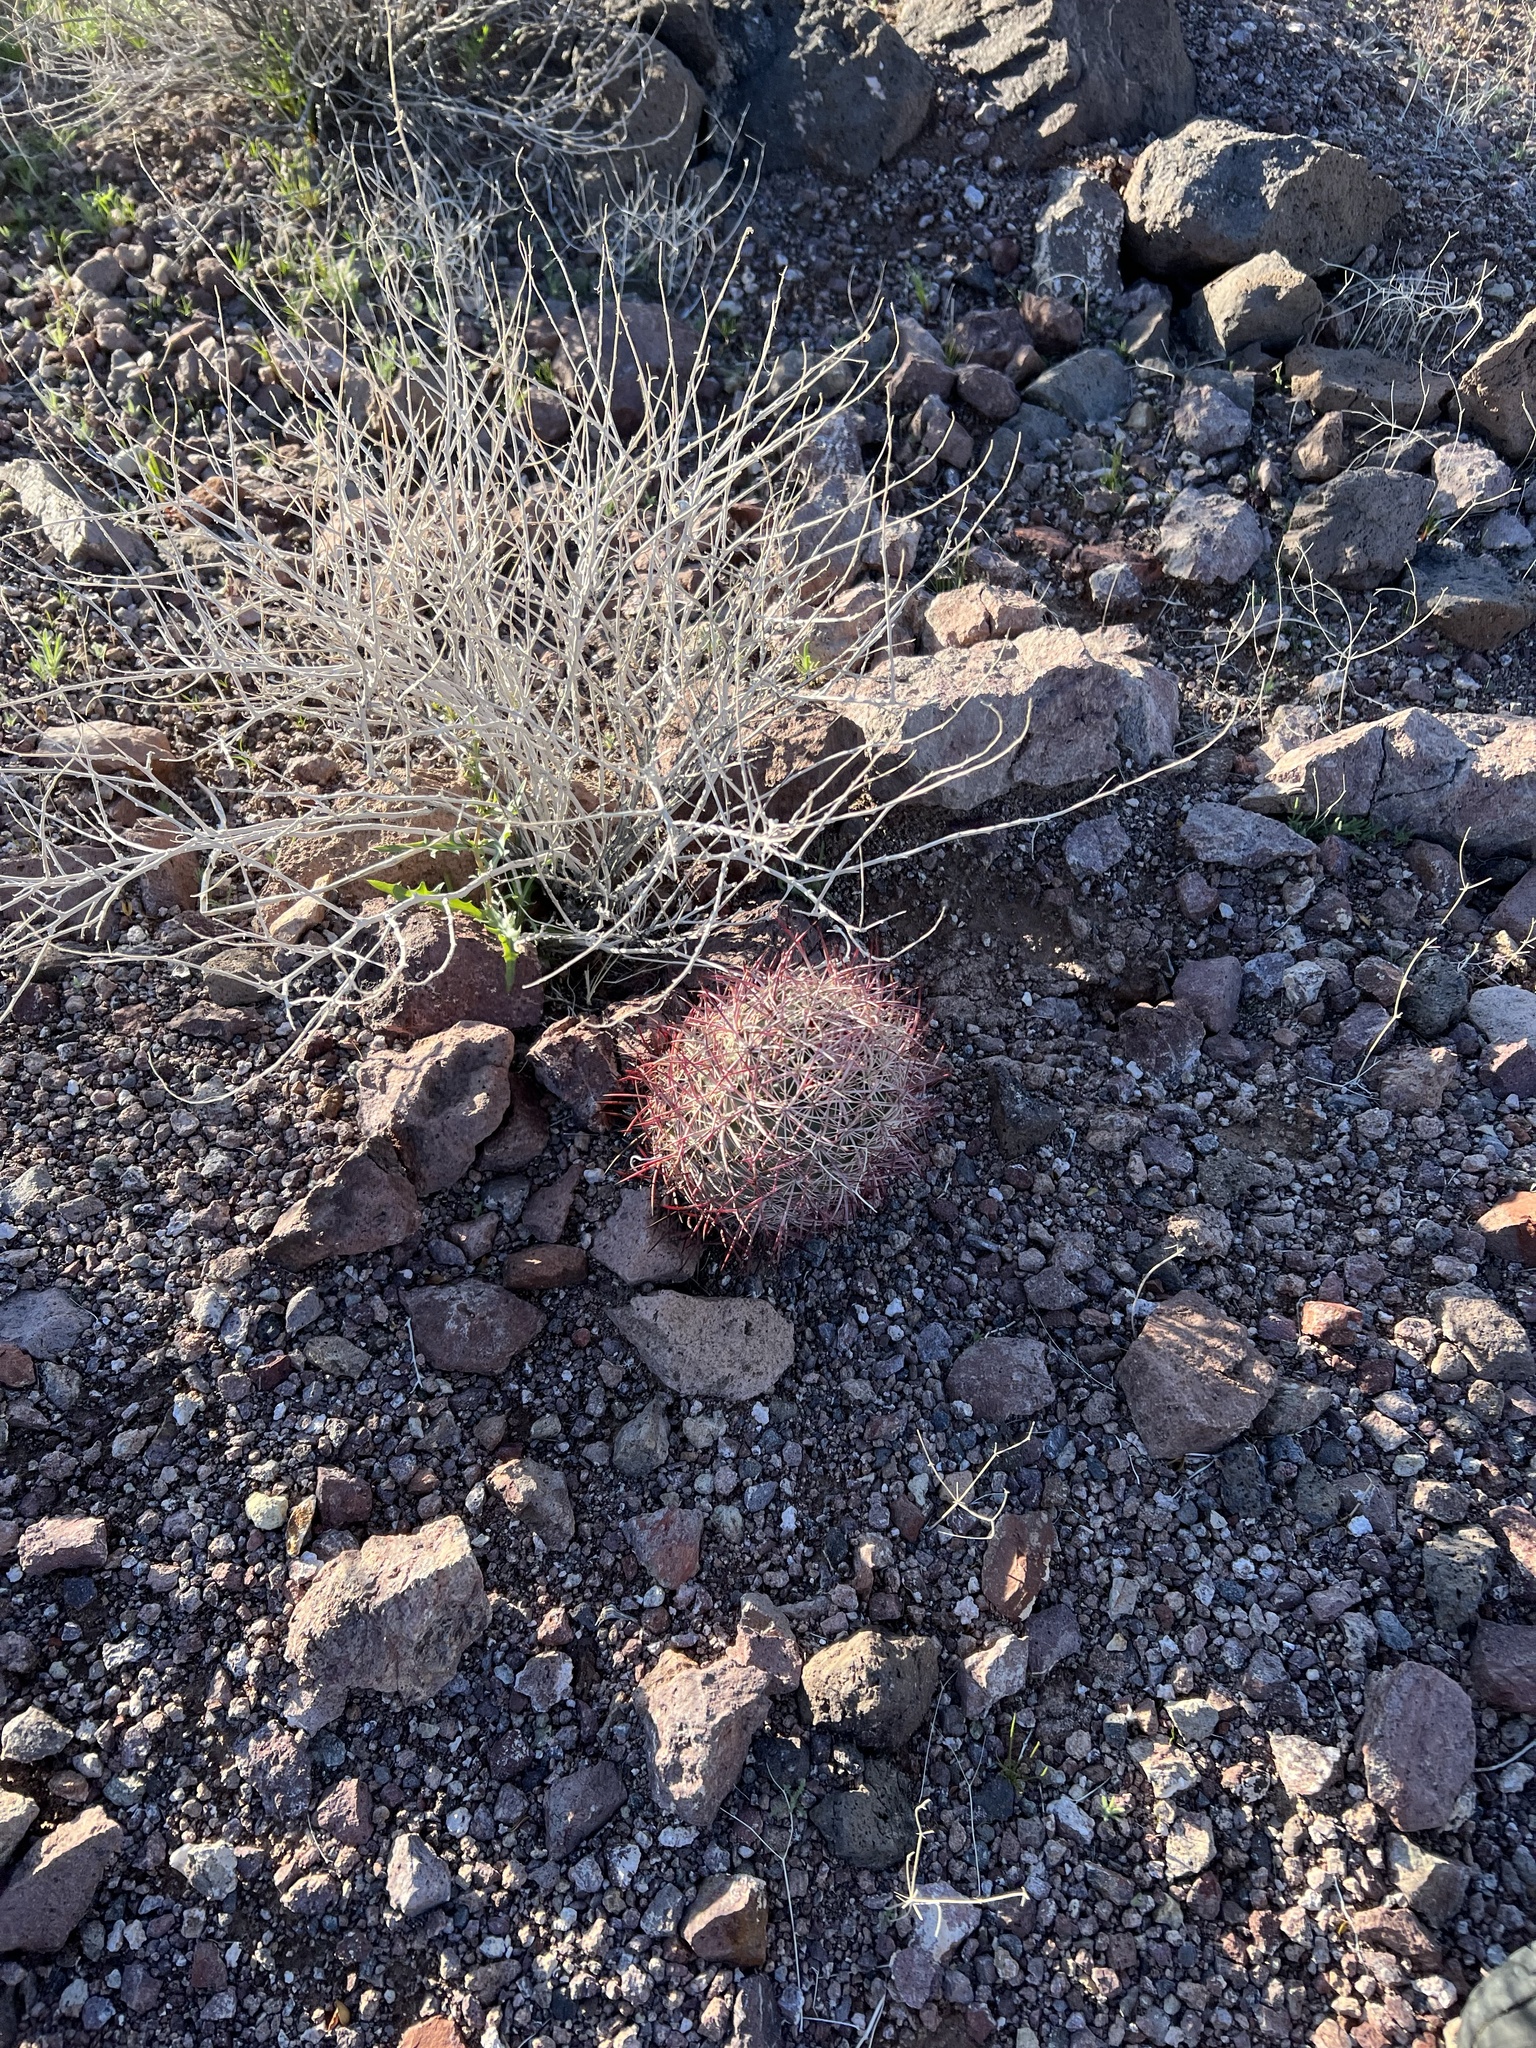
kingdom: Plantae
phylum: Tracheophyta
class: Magnoliopsida
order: Caryophyllales
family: Cactaceae
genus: Sclerocactus
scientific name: Sclerocactus johnsonii
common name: Eight-spine fishhook cactus
